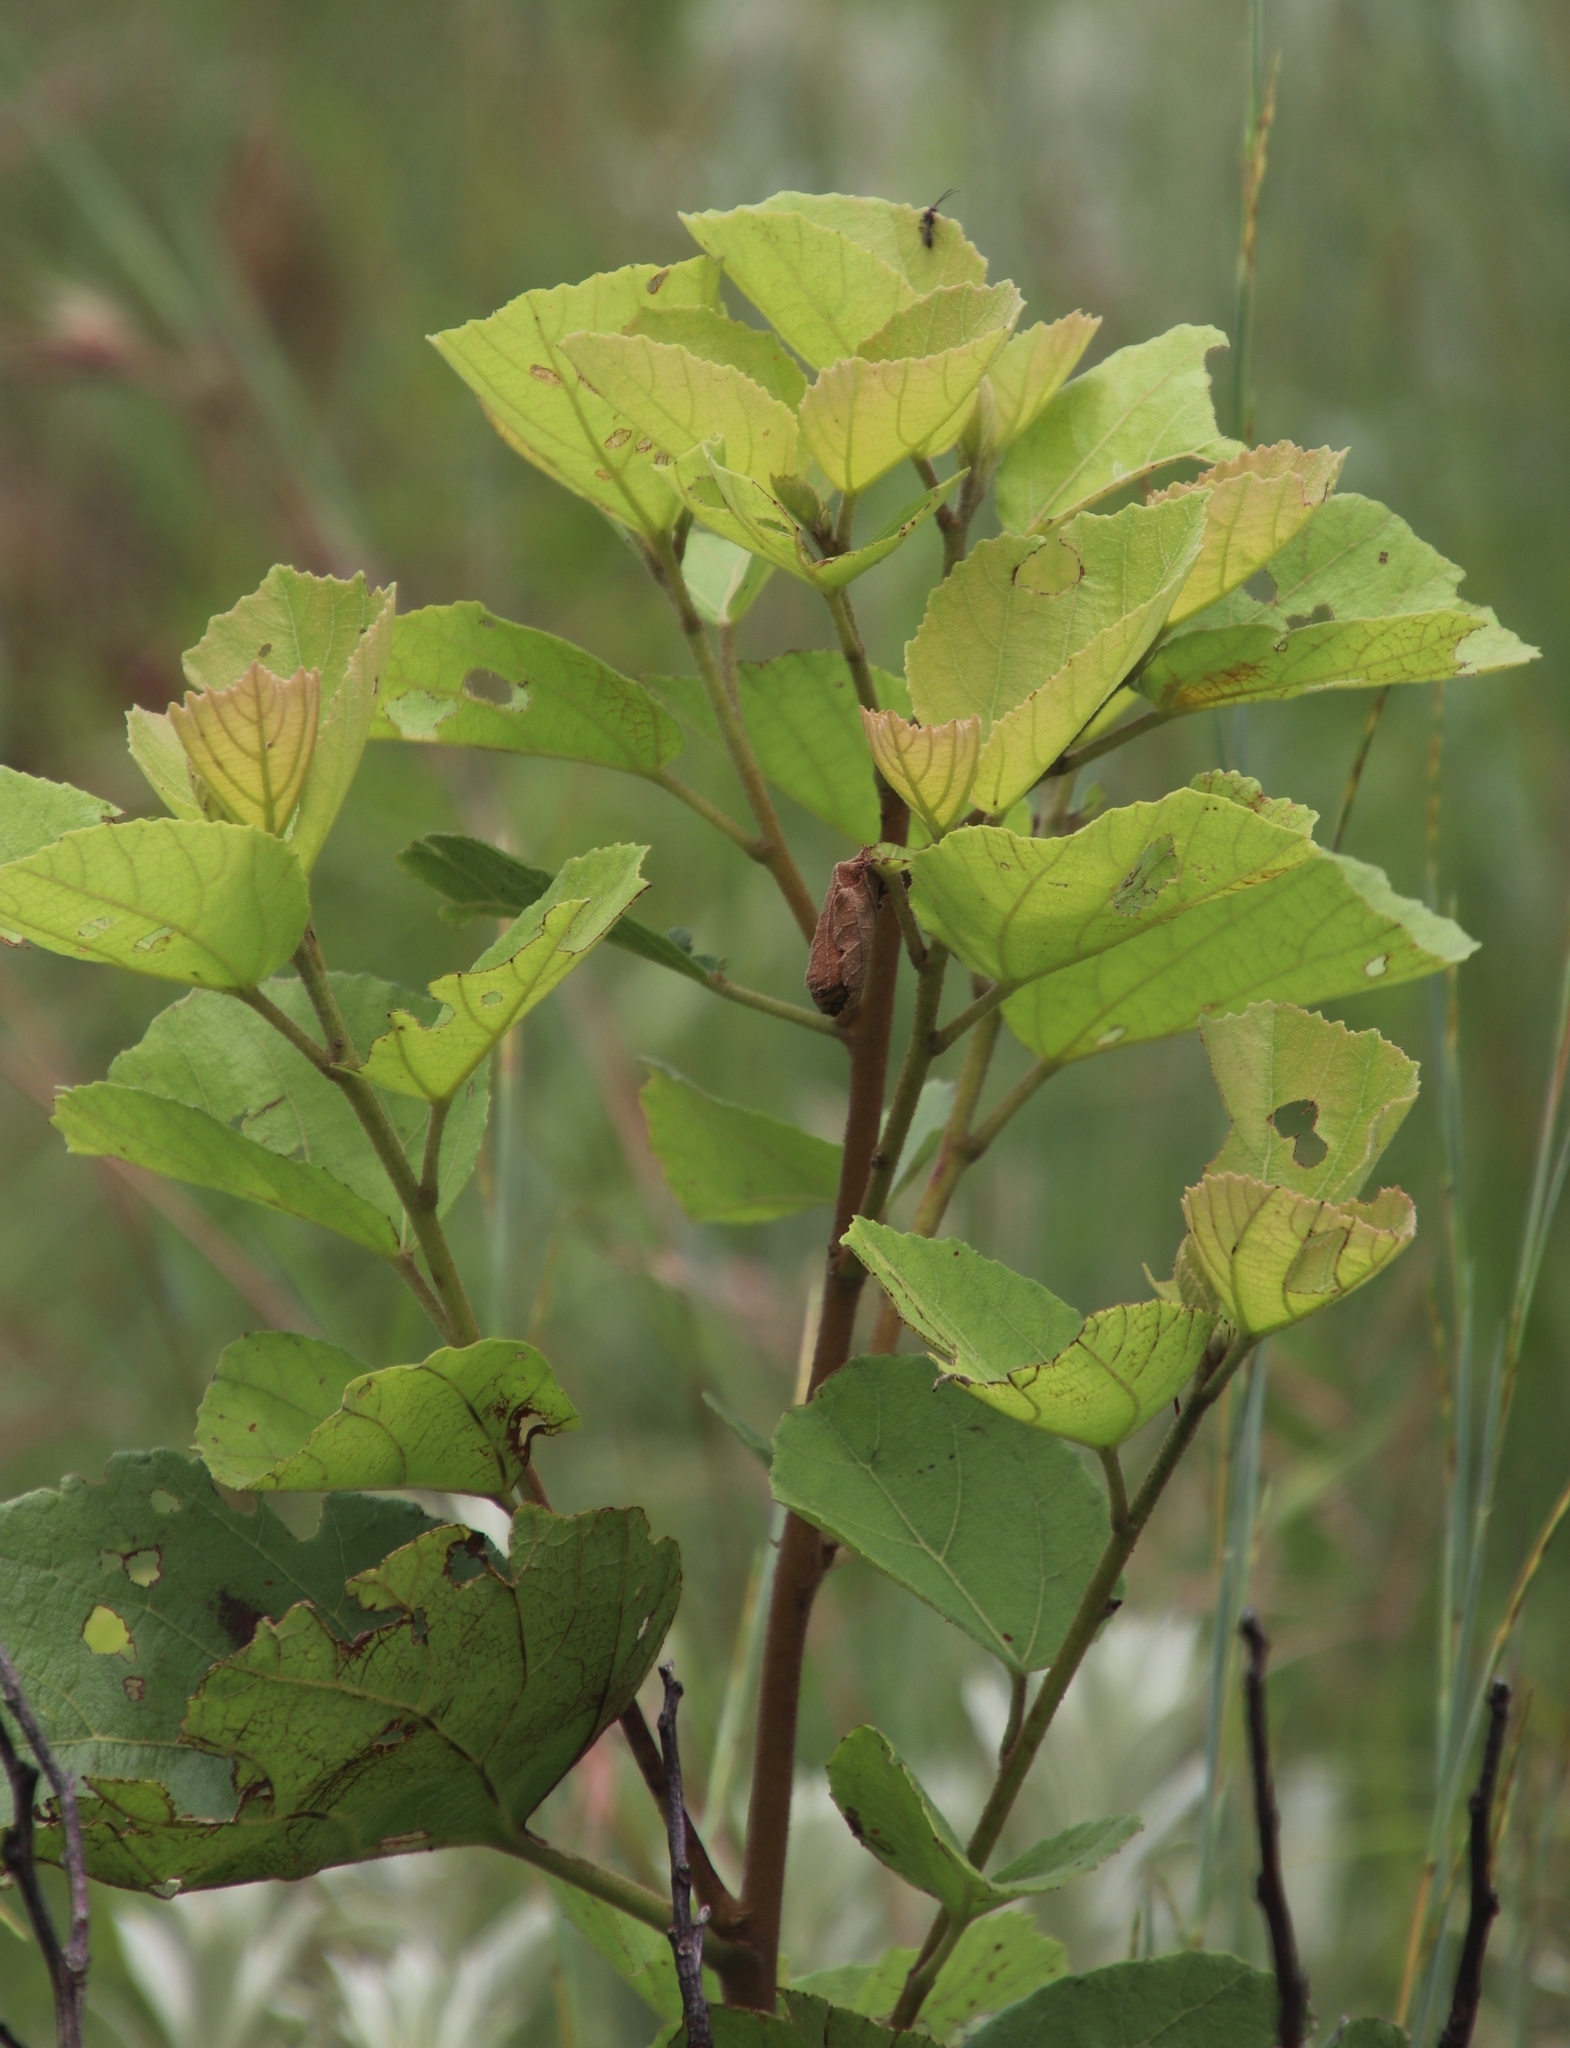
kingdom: Plantae
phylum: Tracheophyta
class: Magnoliopsida
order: Malvales
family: Malvaceae
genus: Dombeya
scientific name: Dombeya rotundifolia
